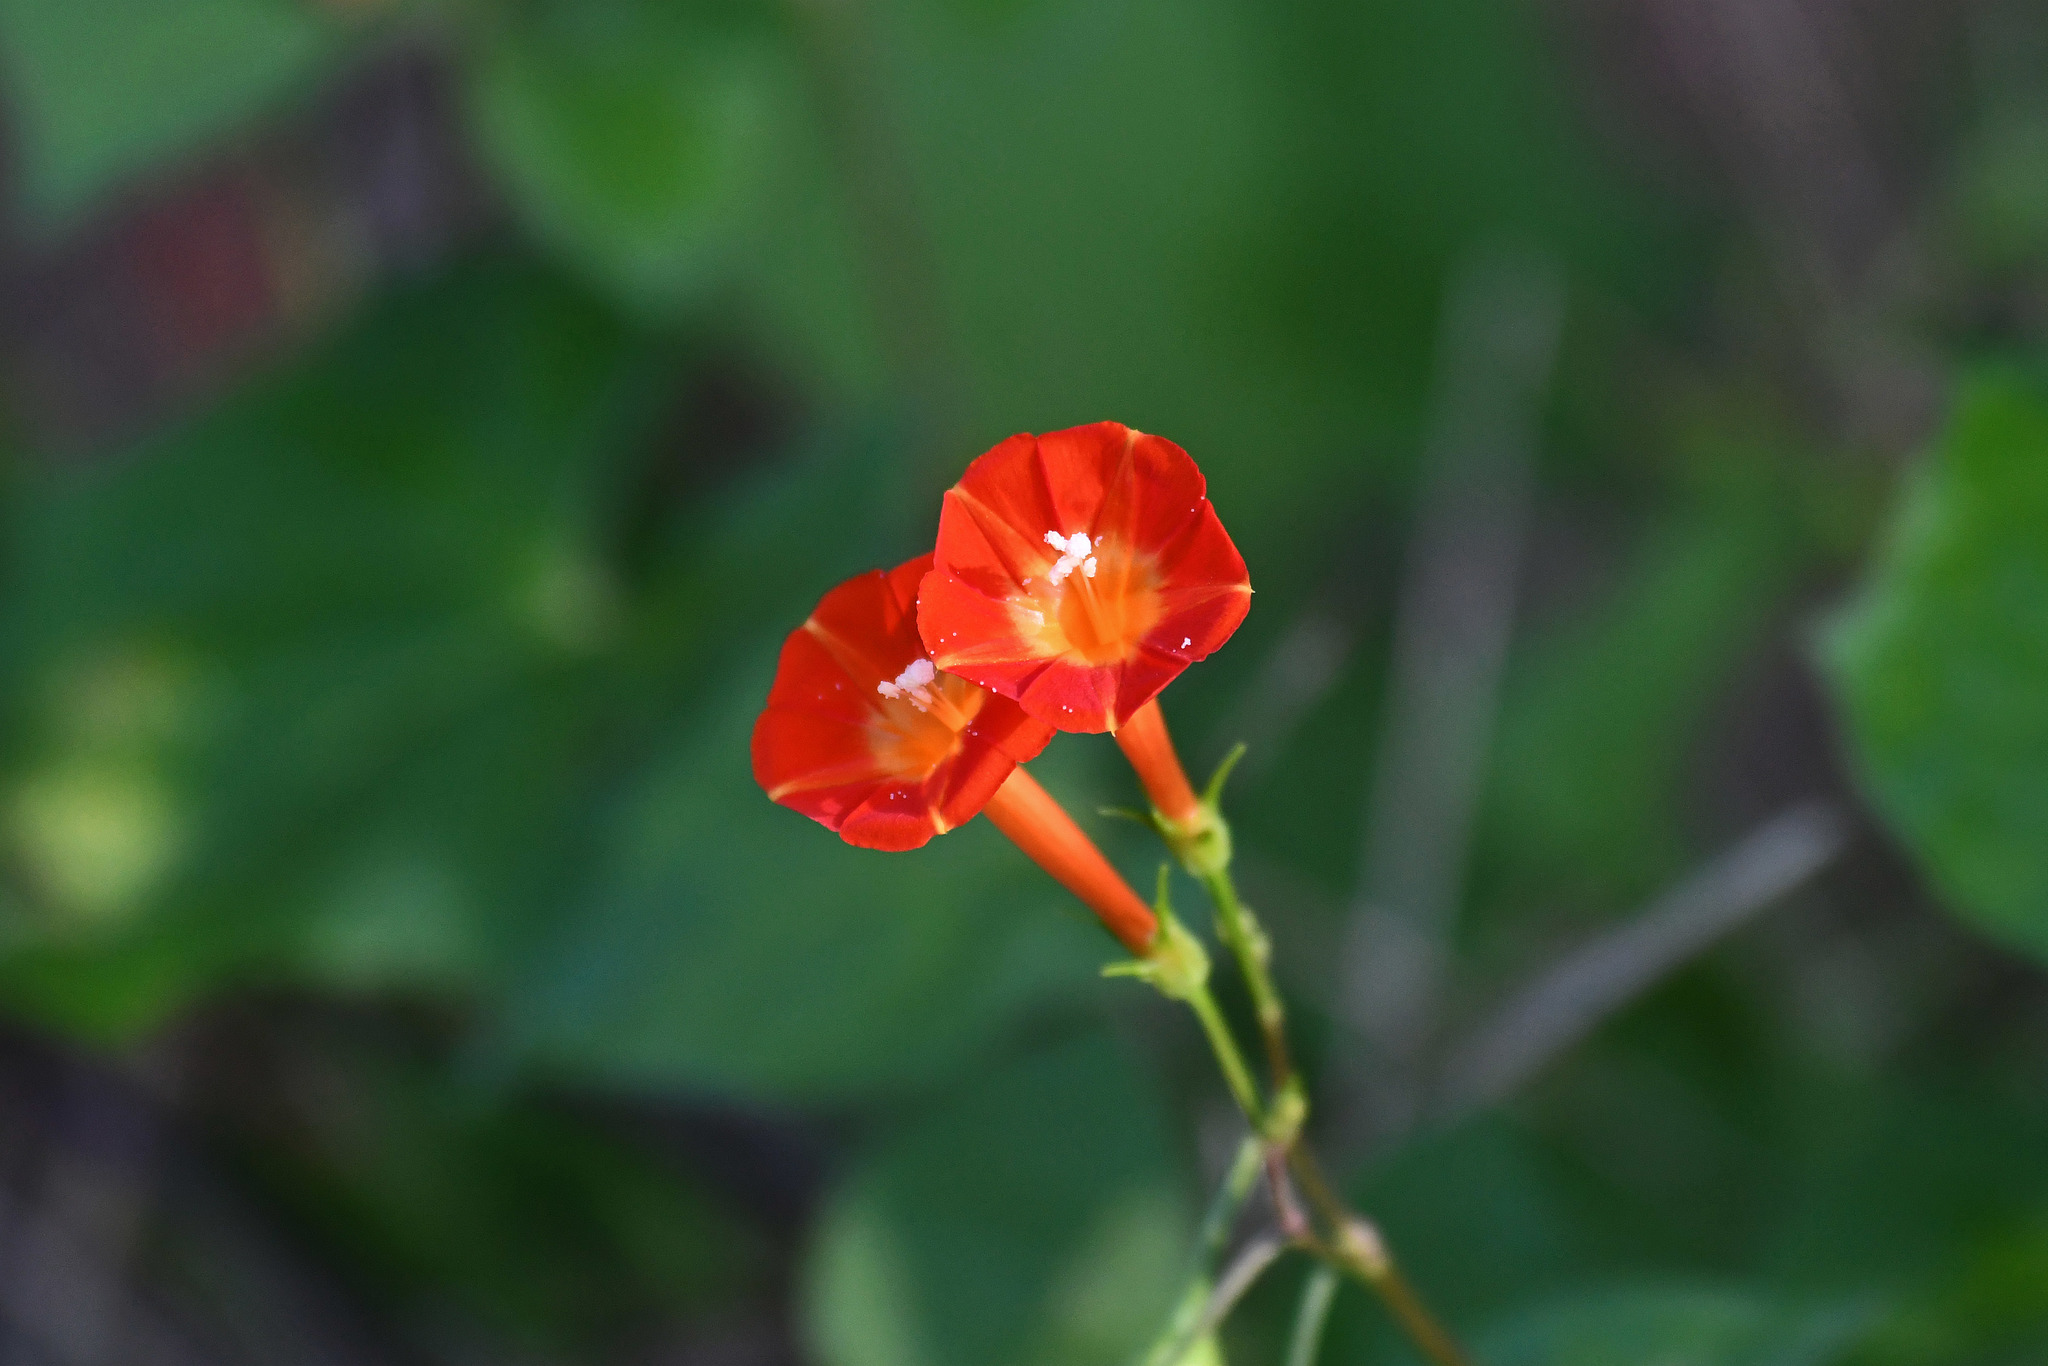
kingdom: Plantae
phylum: Tracheophyta
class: Magnoliopsida
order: Solanales
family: Convolvulaceae
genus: Ipomoea
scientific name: Ipomoea coccinea
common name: Red morning-glory
